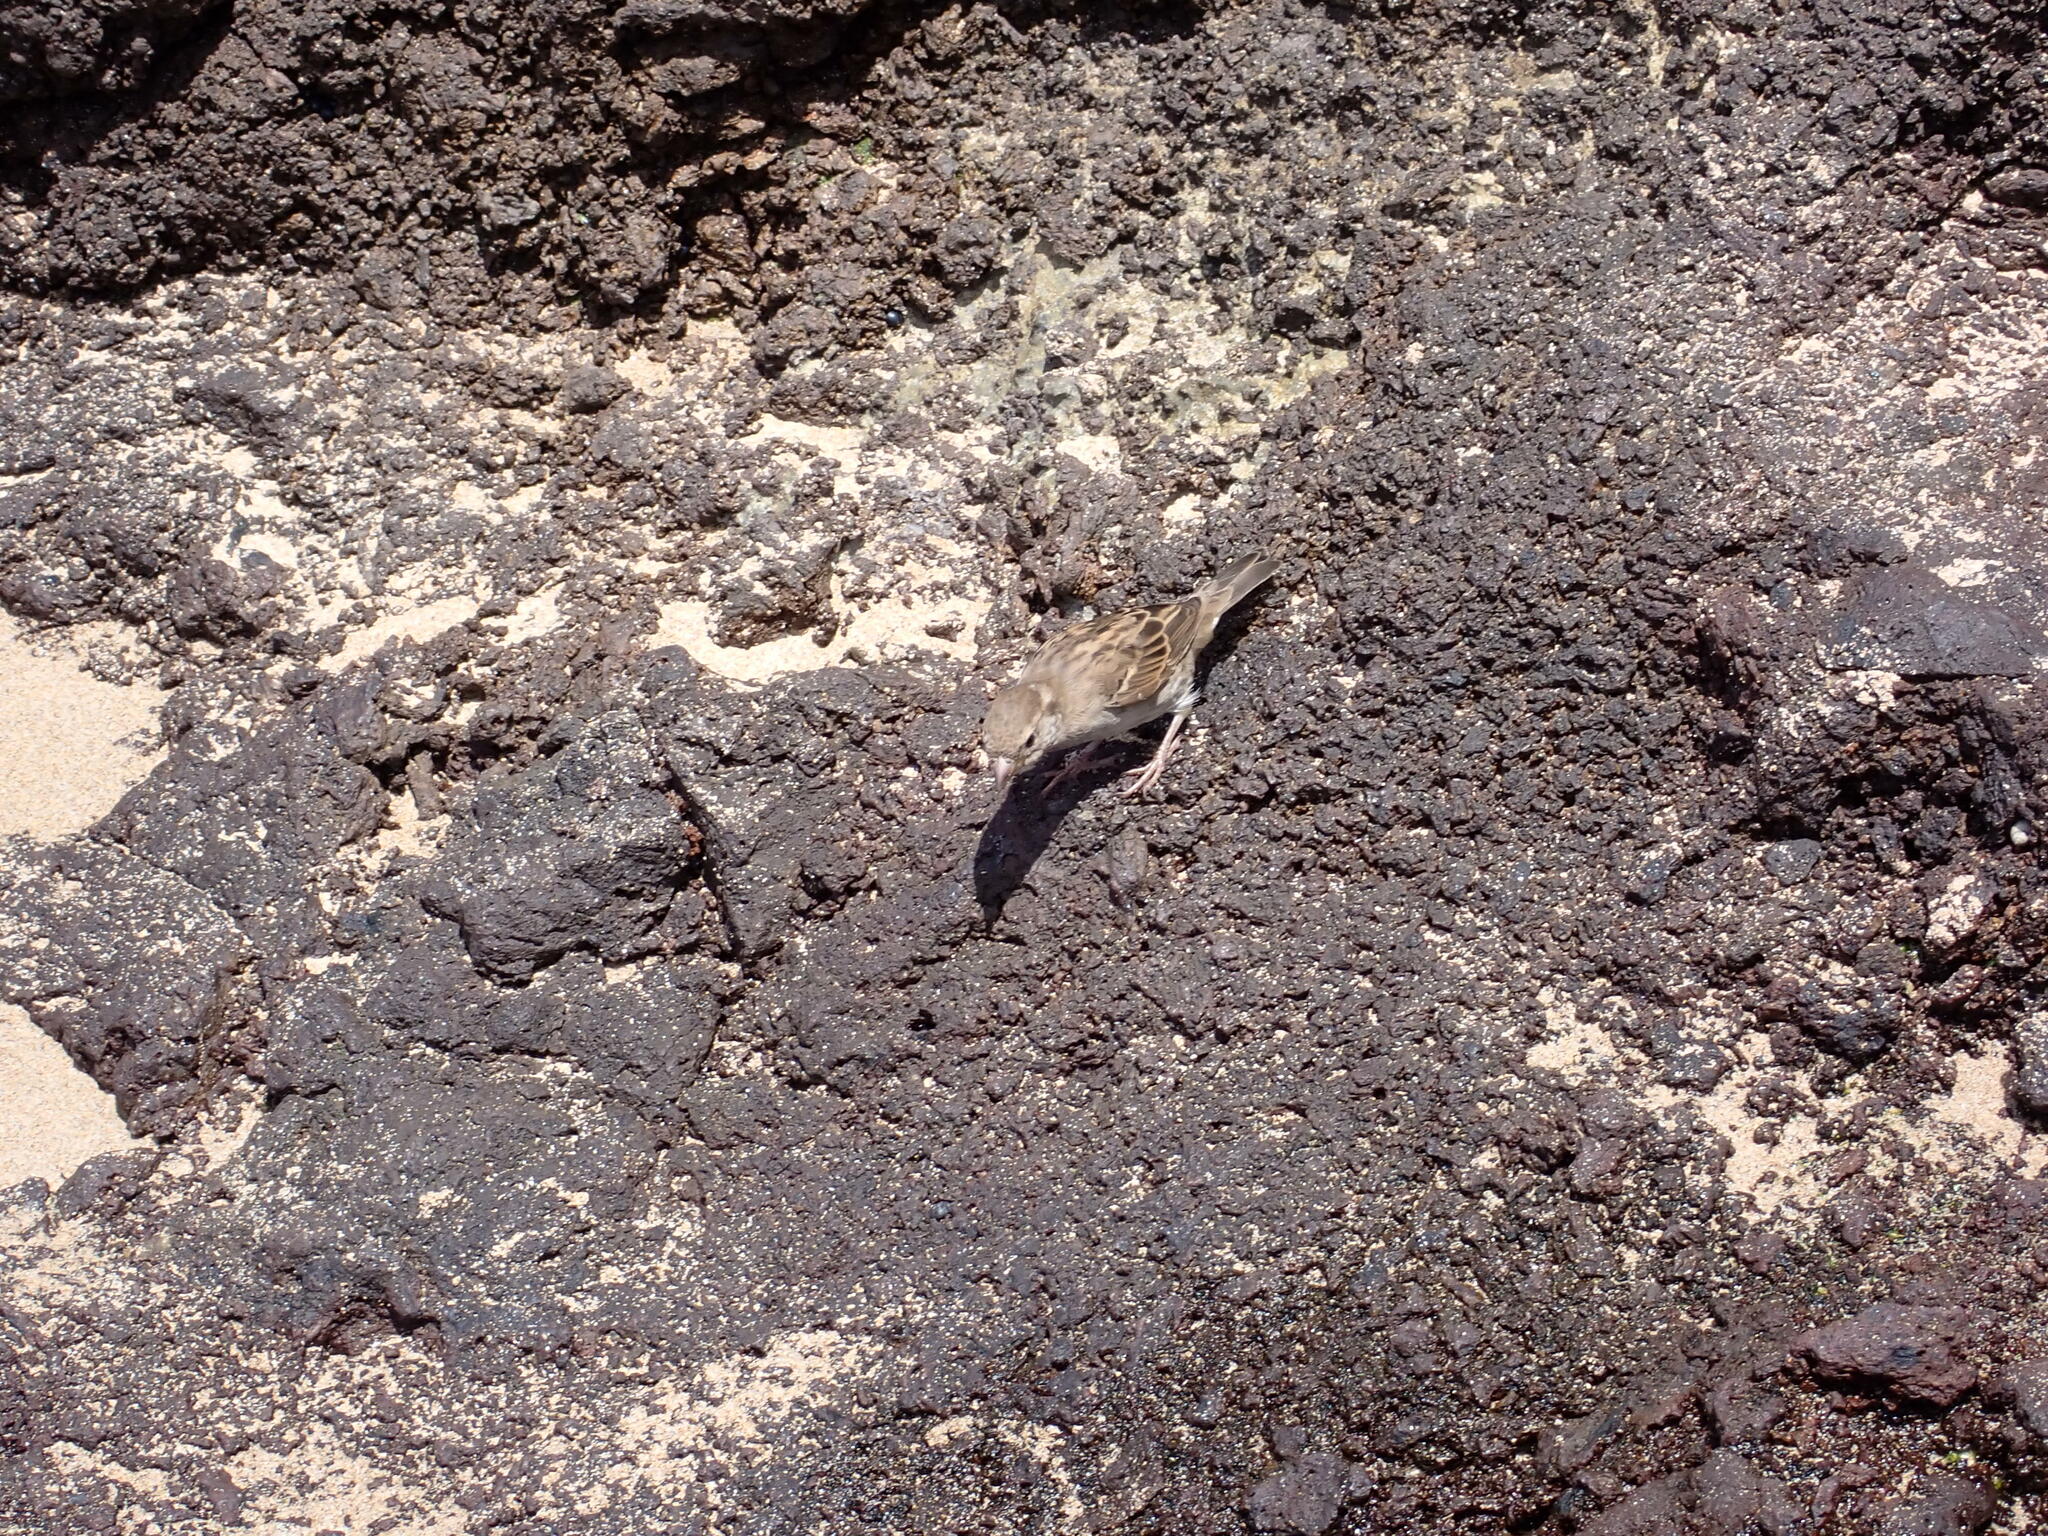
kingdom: Animalia
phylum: Chordata
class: Aves
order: Passeriformes
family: Passeridae
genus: Passer
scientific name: Passer domesticus
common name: House sparrow
